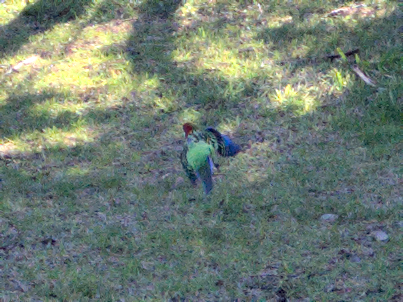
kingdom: Animalia
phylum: Chordata
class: Aves
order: Psittaciformes
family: Psittacidae
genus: Platycercus
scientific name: Platycercus eximius
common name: Eastern rosella
